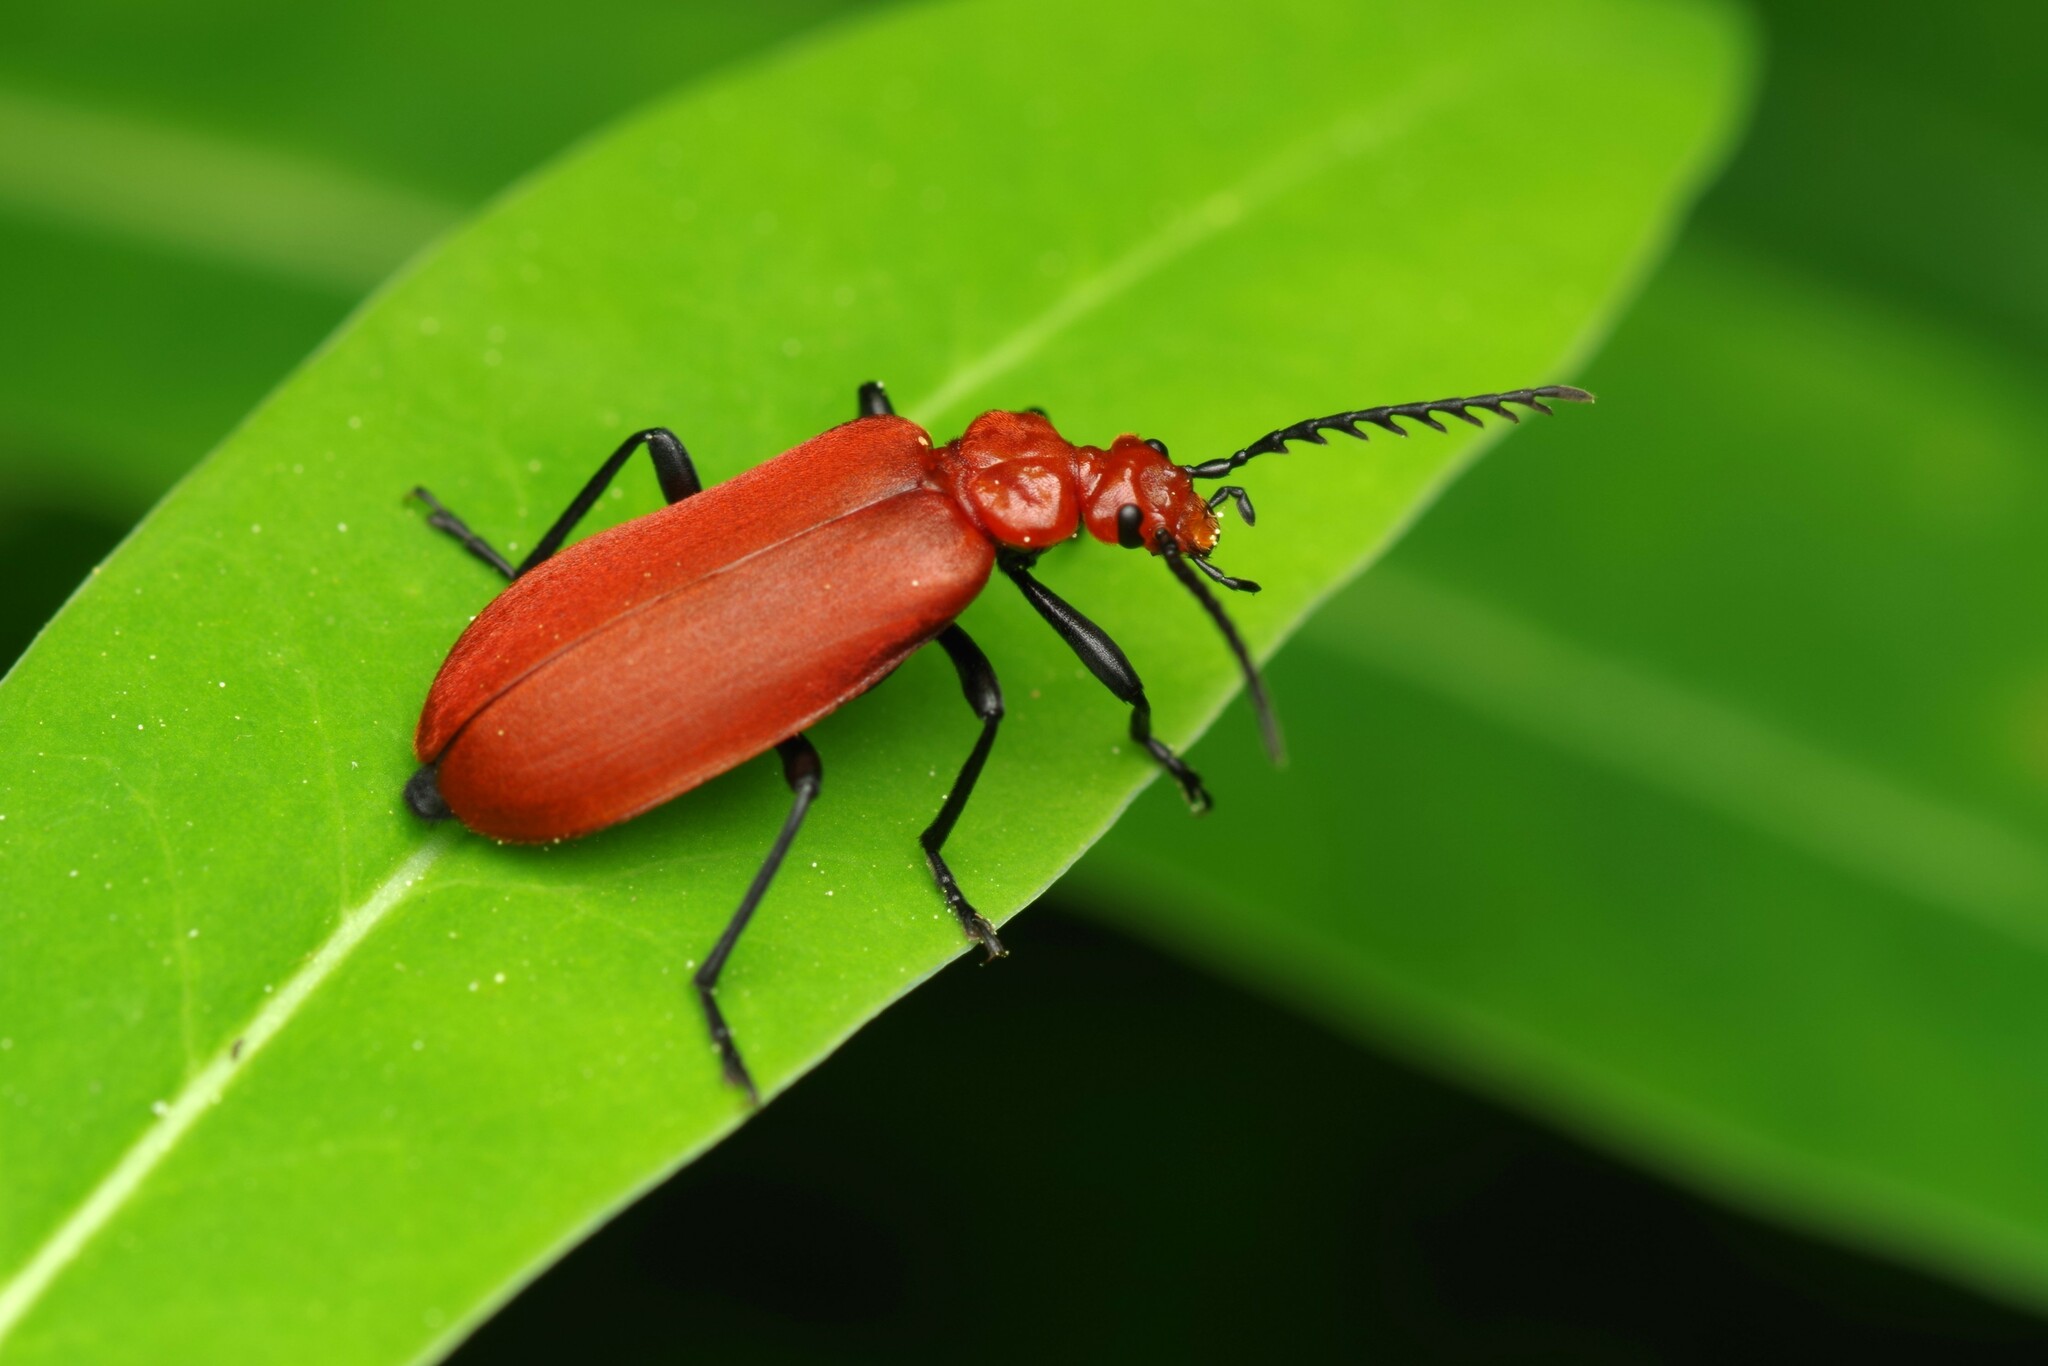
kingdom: Animalia
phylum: Arthropoda
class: Insecta
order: Coleoptera
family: Pyrochroidae
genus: Pyrochroa
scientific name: Pyrochroa serraticornis
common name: Red-headed cardinal beetle
